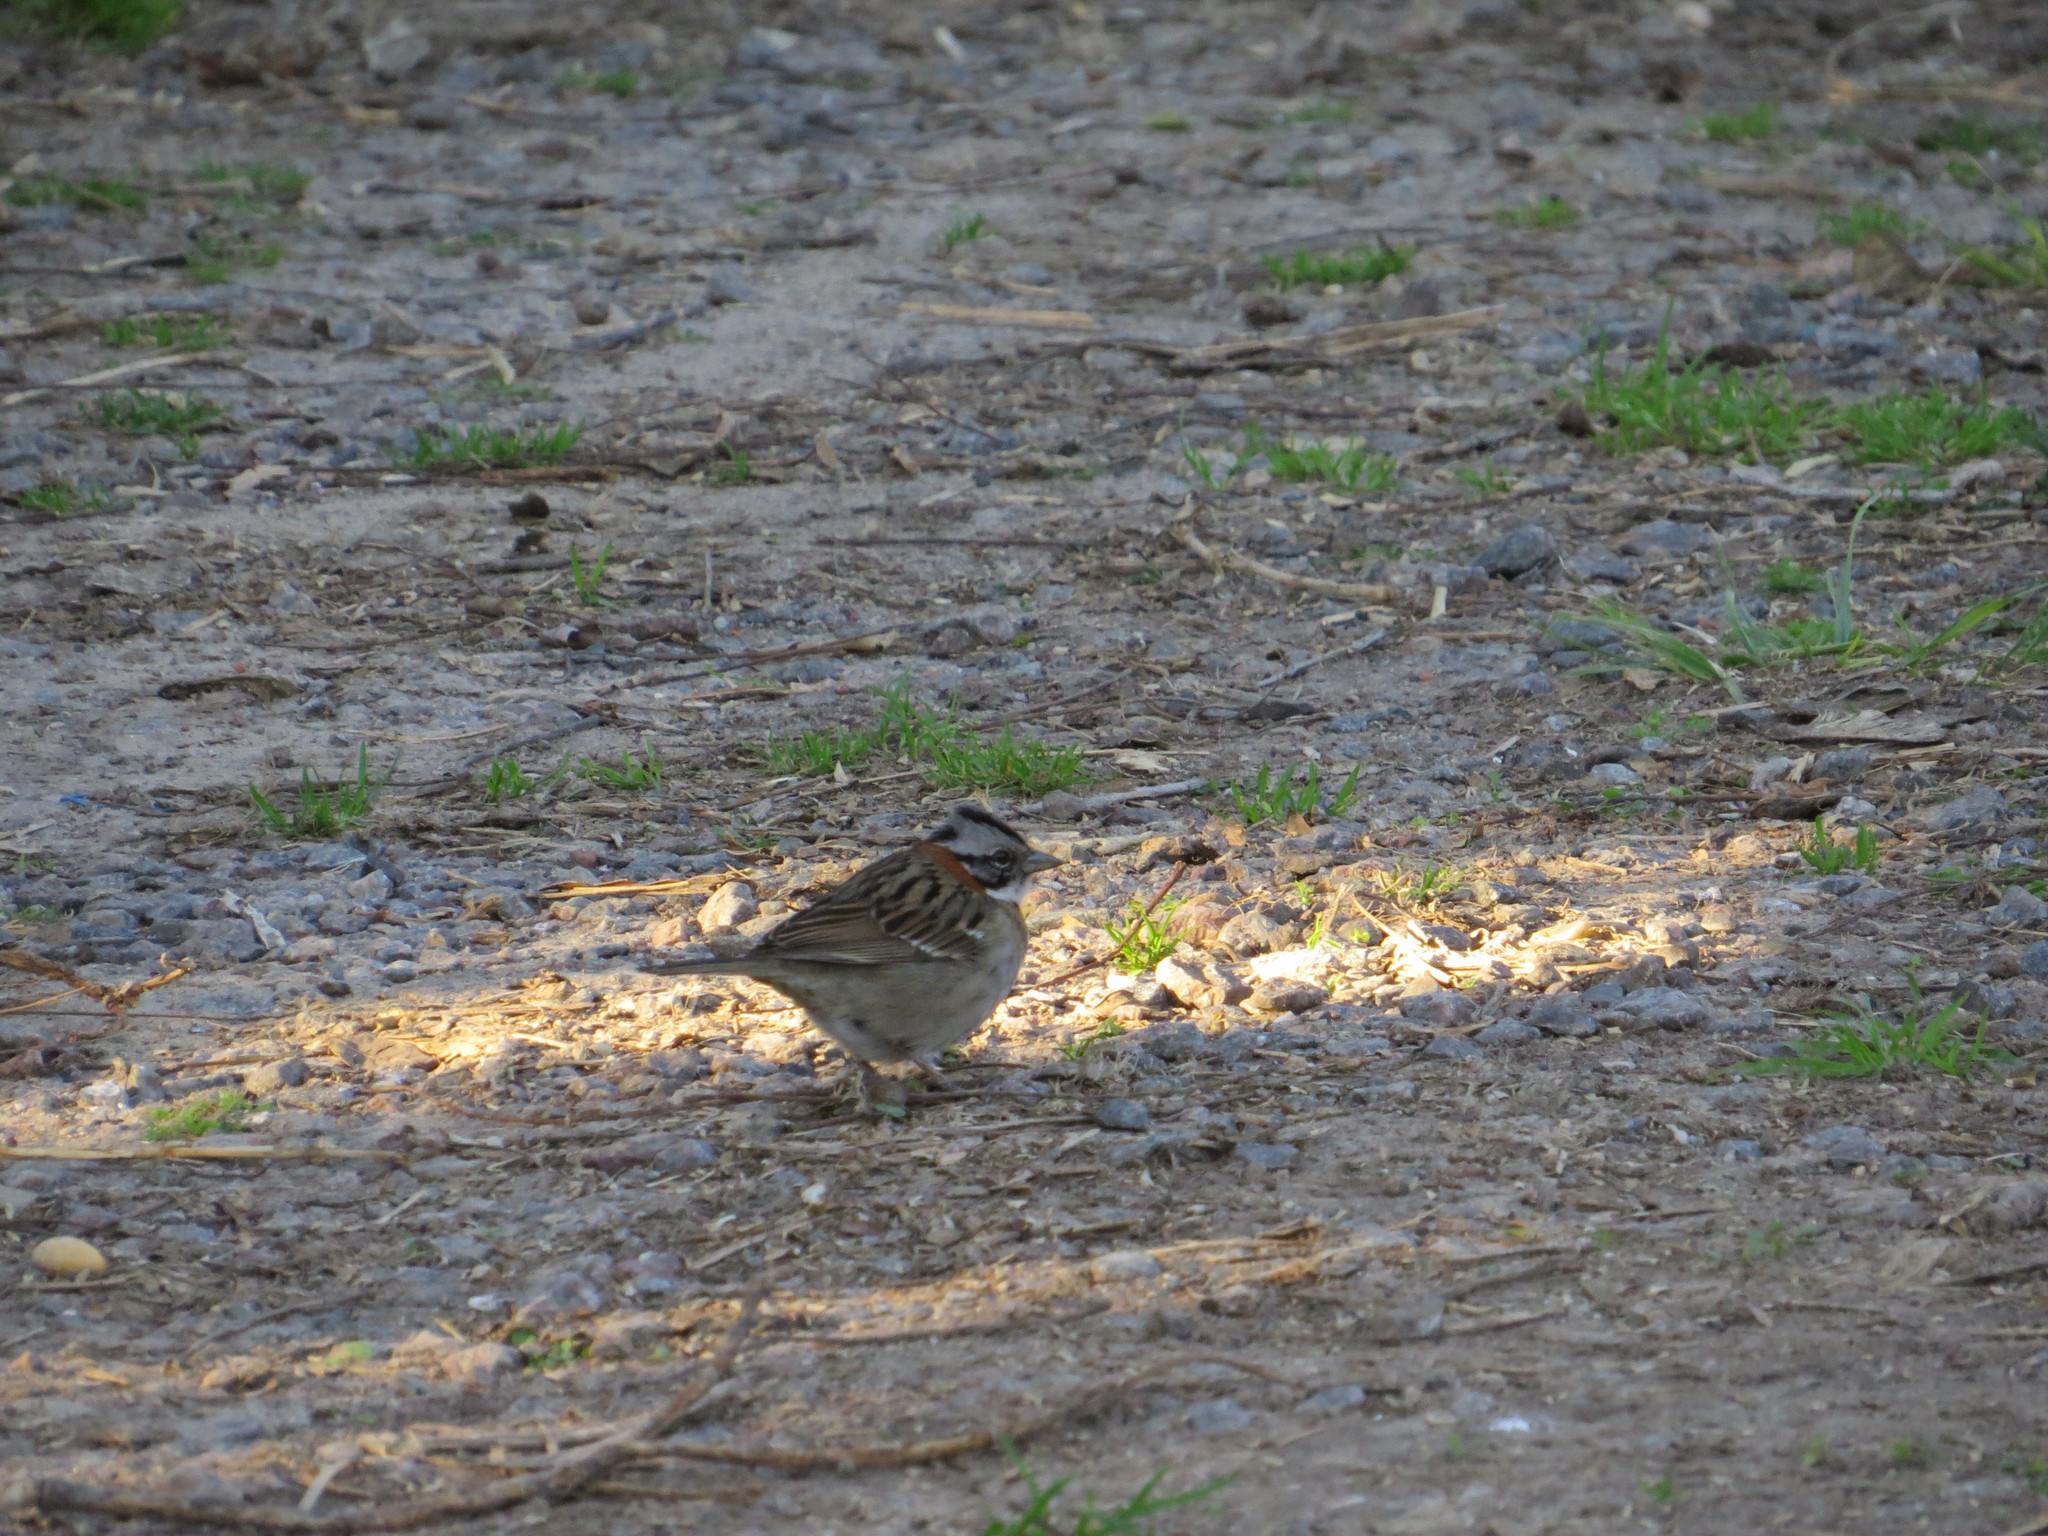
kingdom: Animalia
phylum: Chordata
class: Aves
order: Passeriformes
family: Passerellidae
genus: Zonotrichia
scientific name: Zonotrichia capensis
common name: Rufous-collared sparrow
